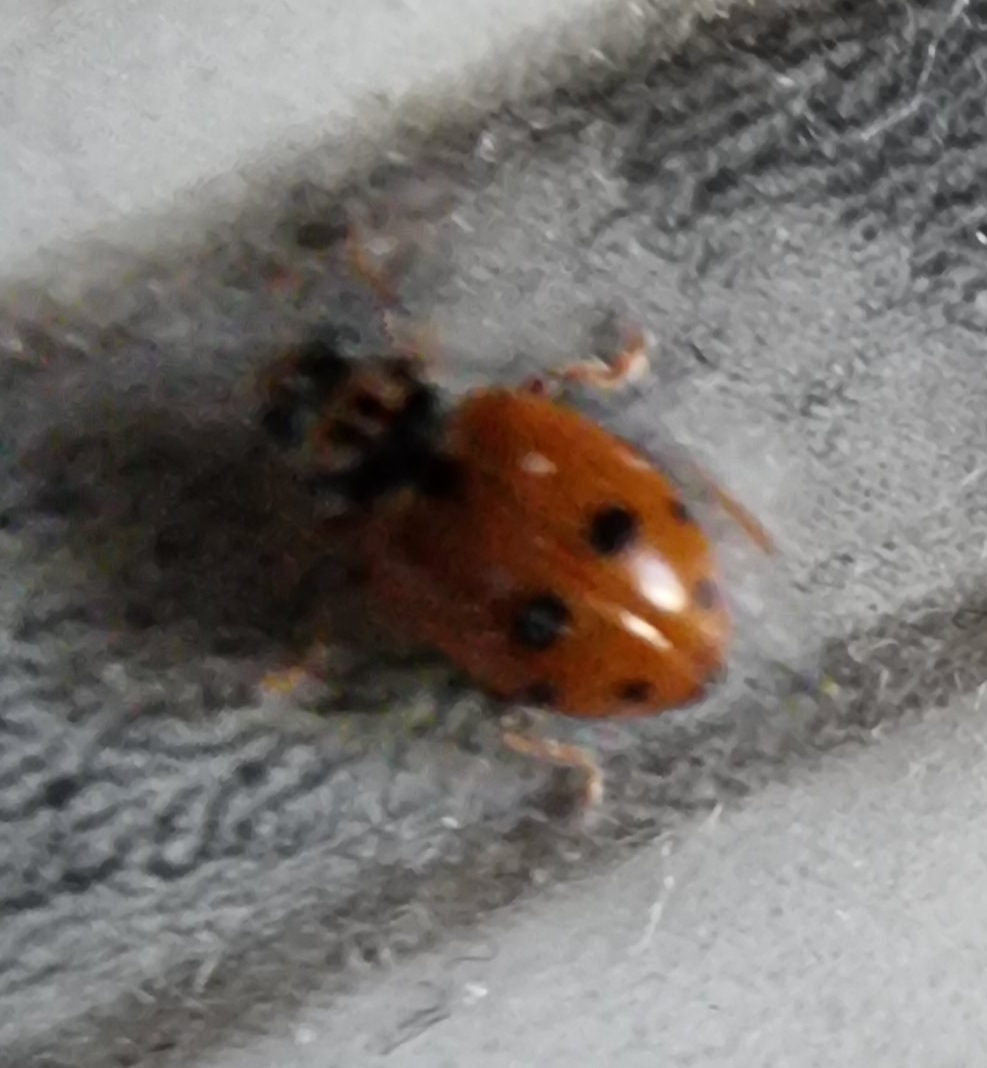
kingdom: Animalia
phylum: Arthropoda
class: Insecta
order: Coleoptera
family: Coccinellidae
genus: Hippodamia
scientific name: Hippodamia variegata
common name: Ladybird beetle
